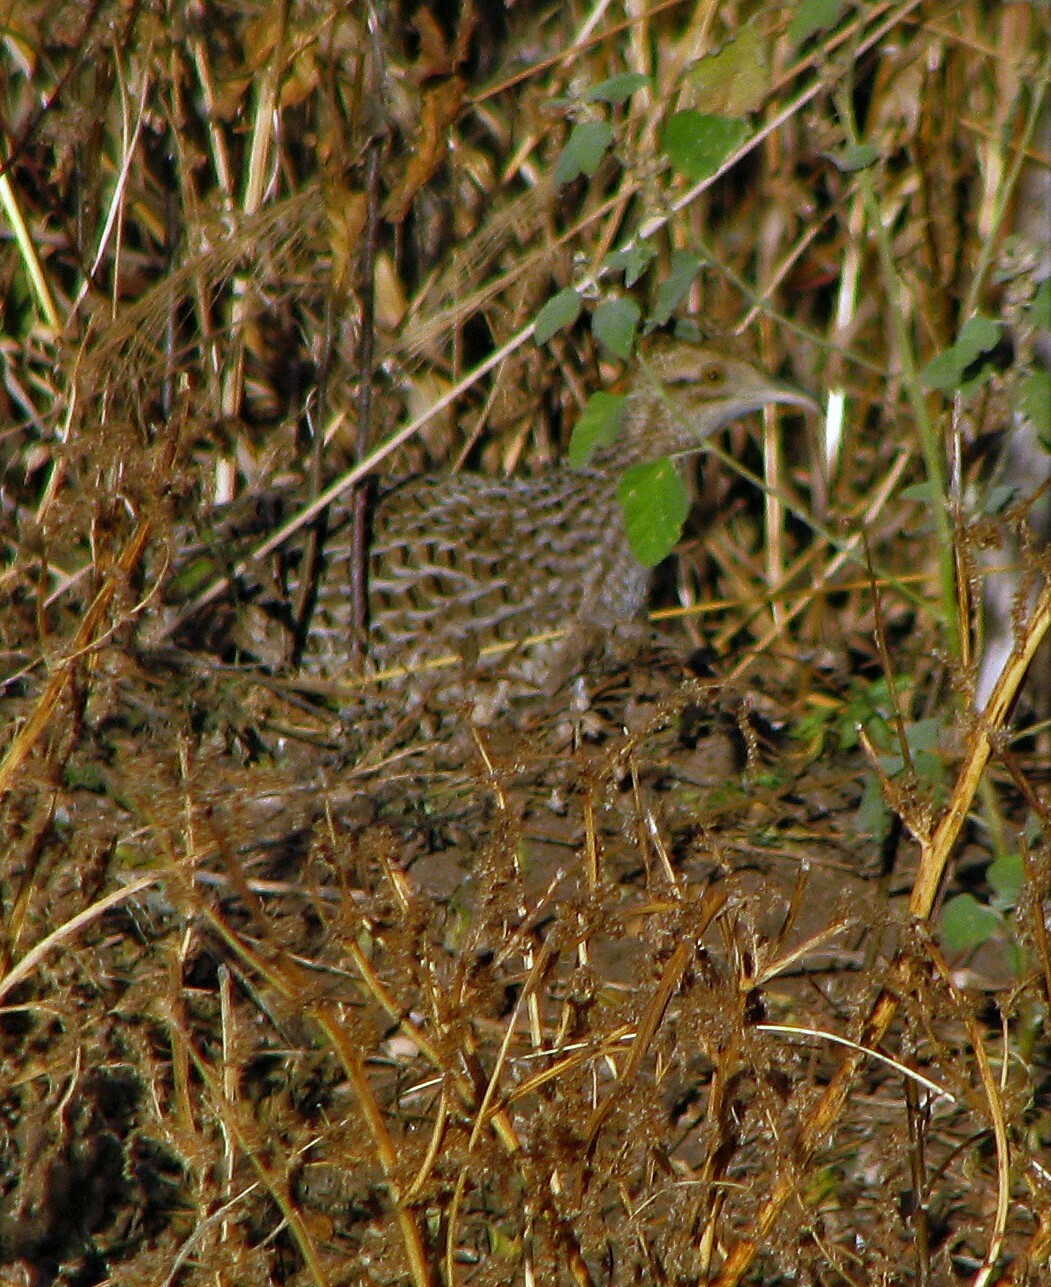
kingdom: Animalia
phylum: Chordata
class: Aves
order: Tinamiformes
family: Tinamidae
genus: Nothura
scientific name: Nothura maculosa
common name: Spotted nothura
